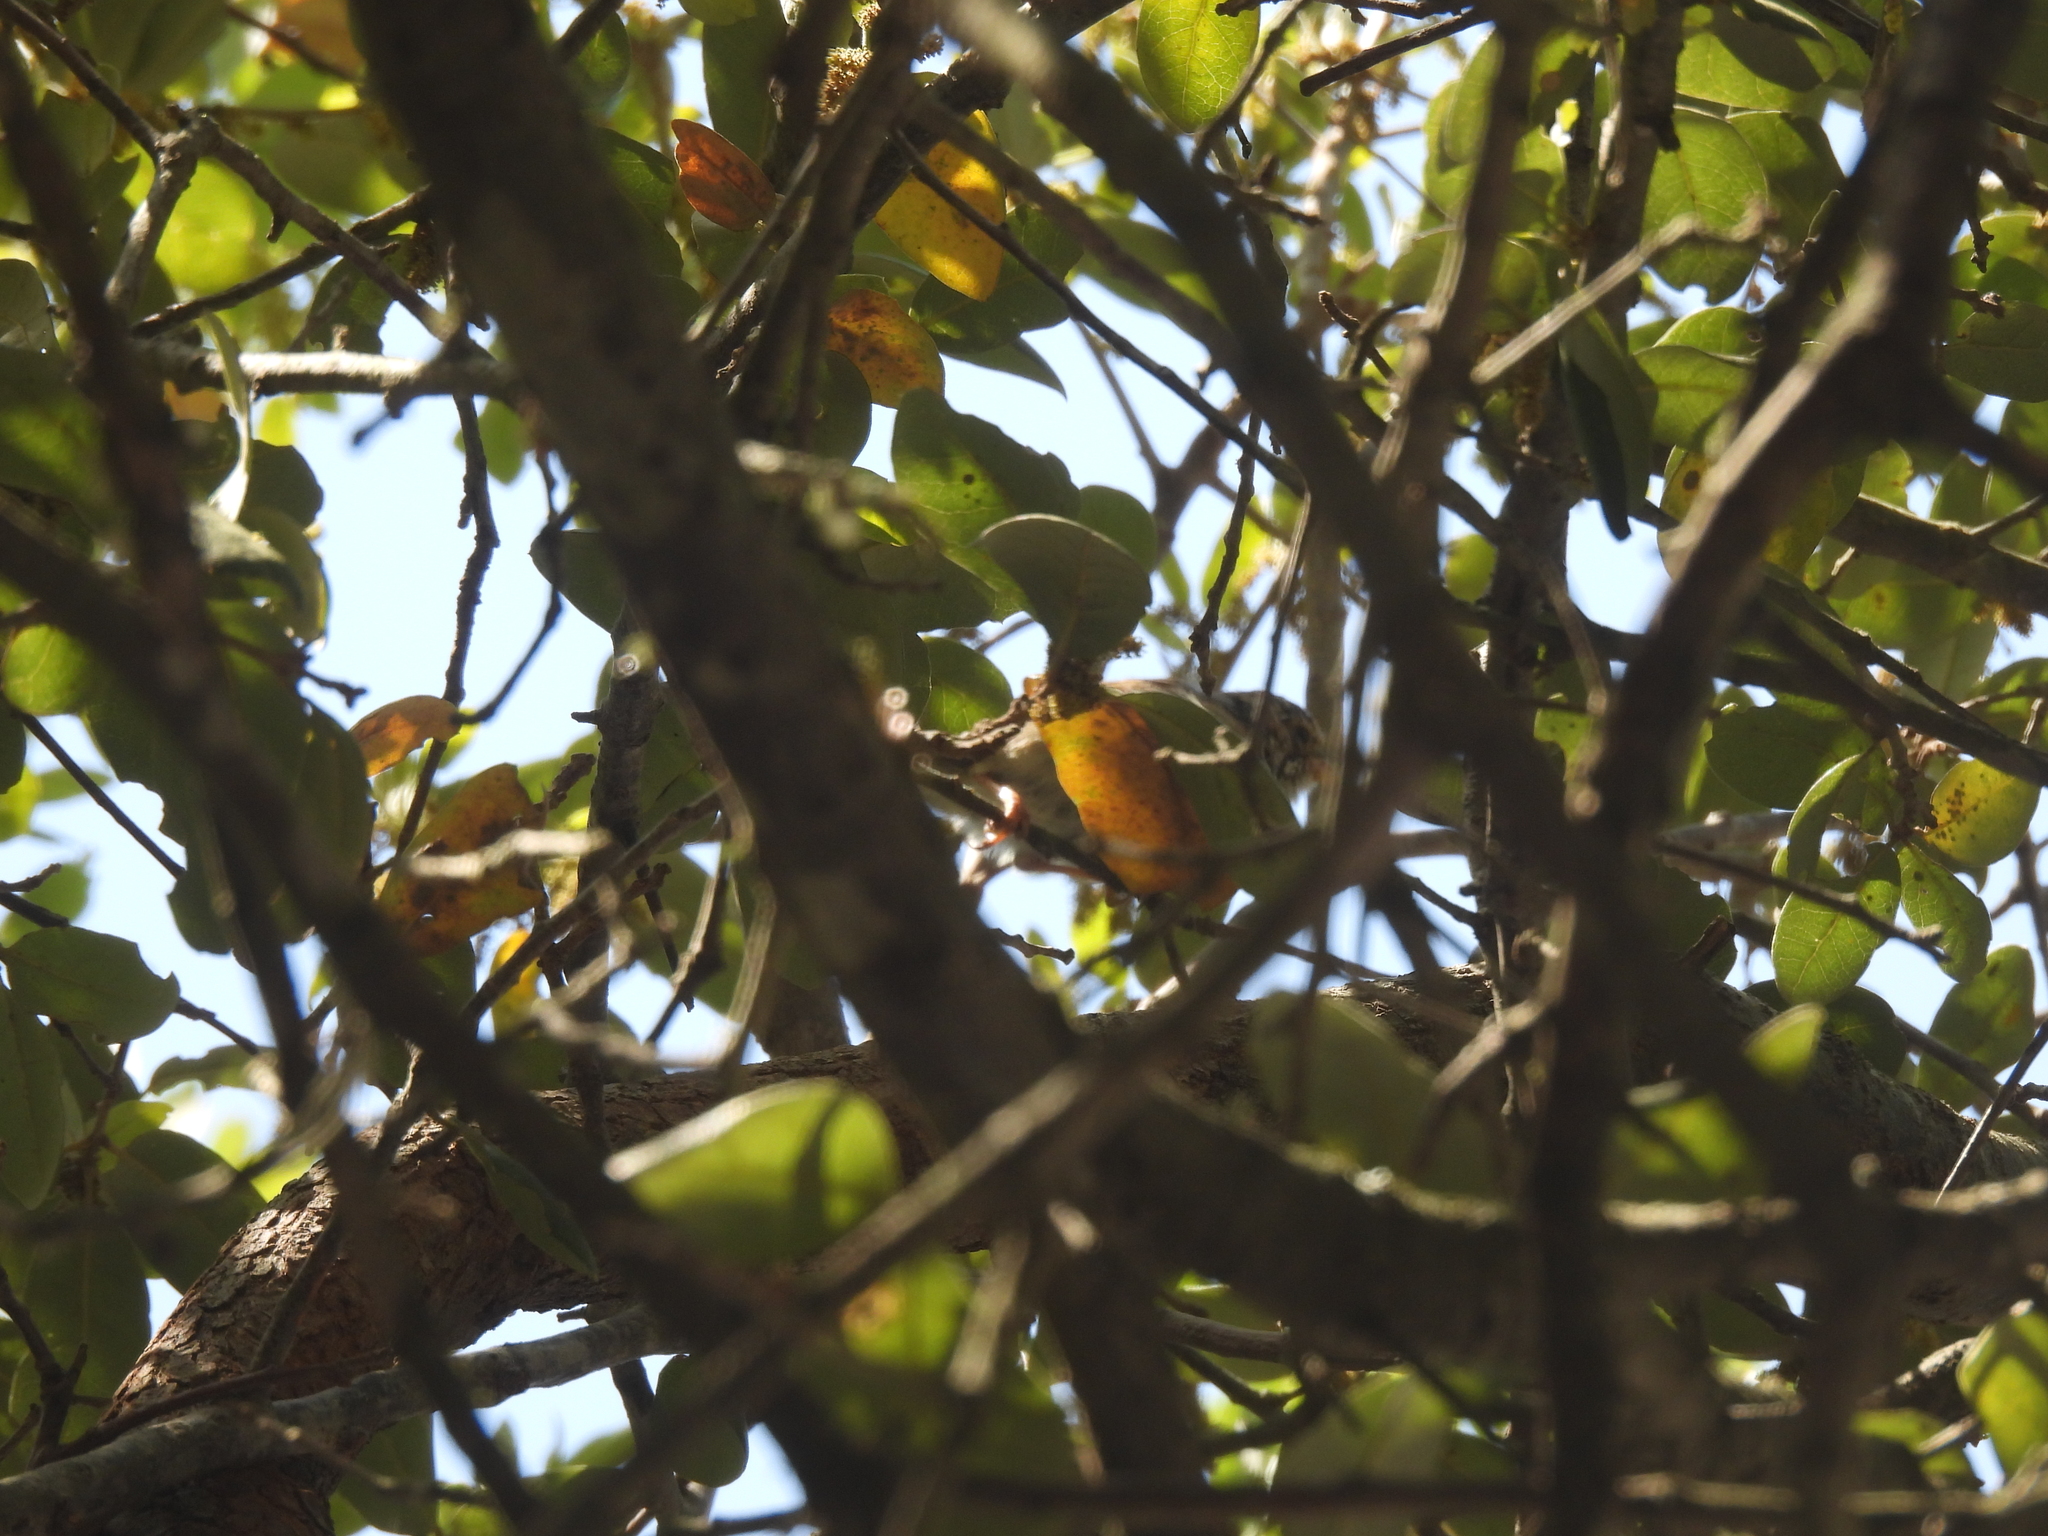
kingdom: Animalia
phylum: Chordata
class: Aves
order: Passeriformes
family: Passerellidae
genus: Spizella
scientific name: Spizella pallida
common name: Clay-colored sparrow
